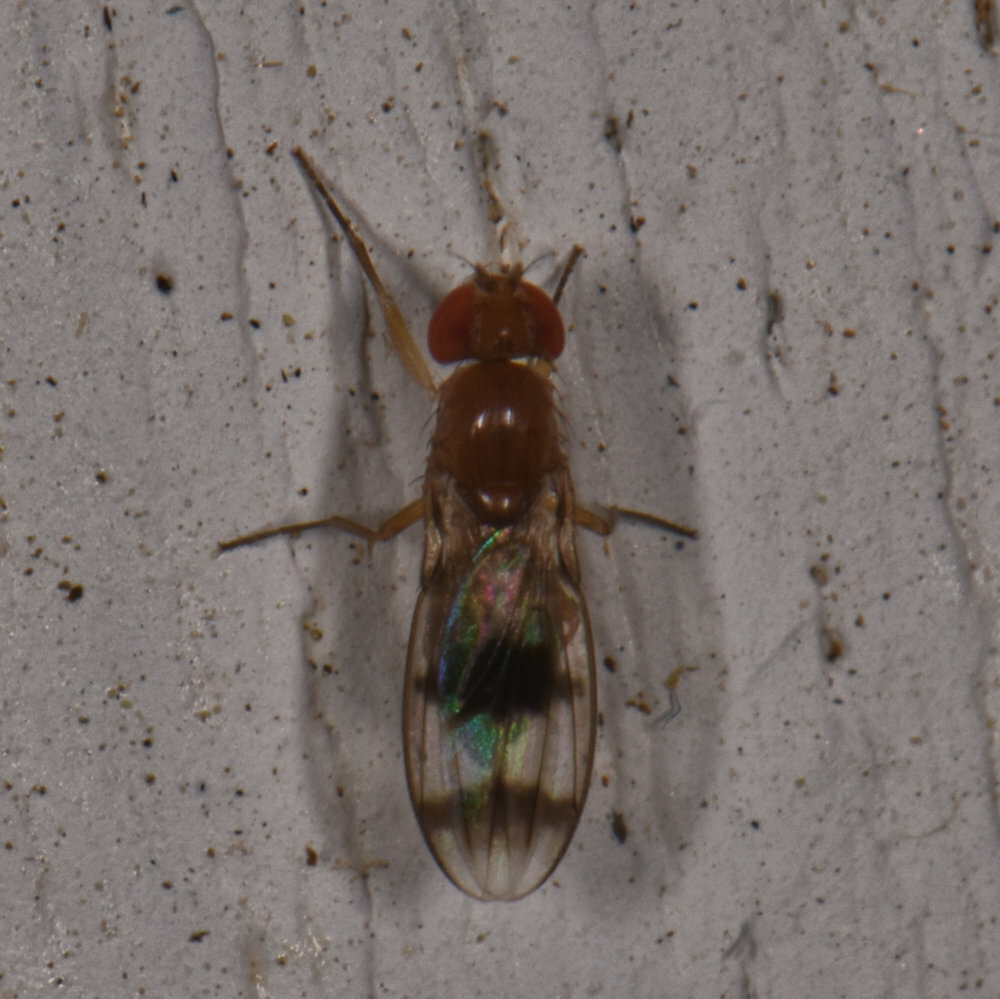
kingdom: Animalia
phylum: Arthropoda
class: Insecta
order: Diptera
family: Drosophilidae
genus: Chymomyza
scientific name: Chymomyza amoena
